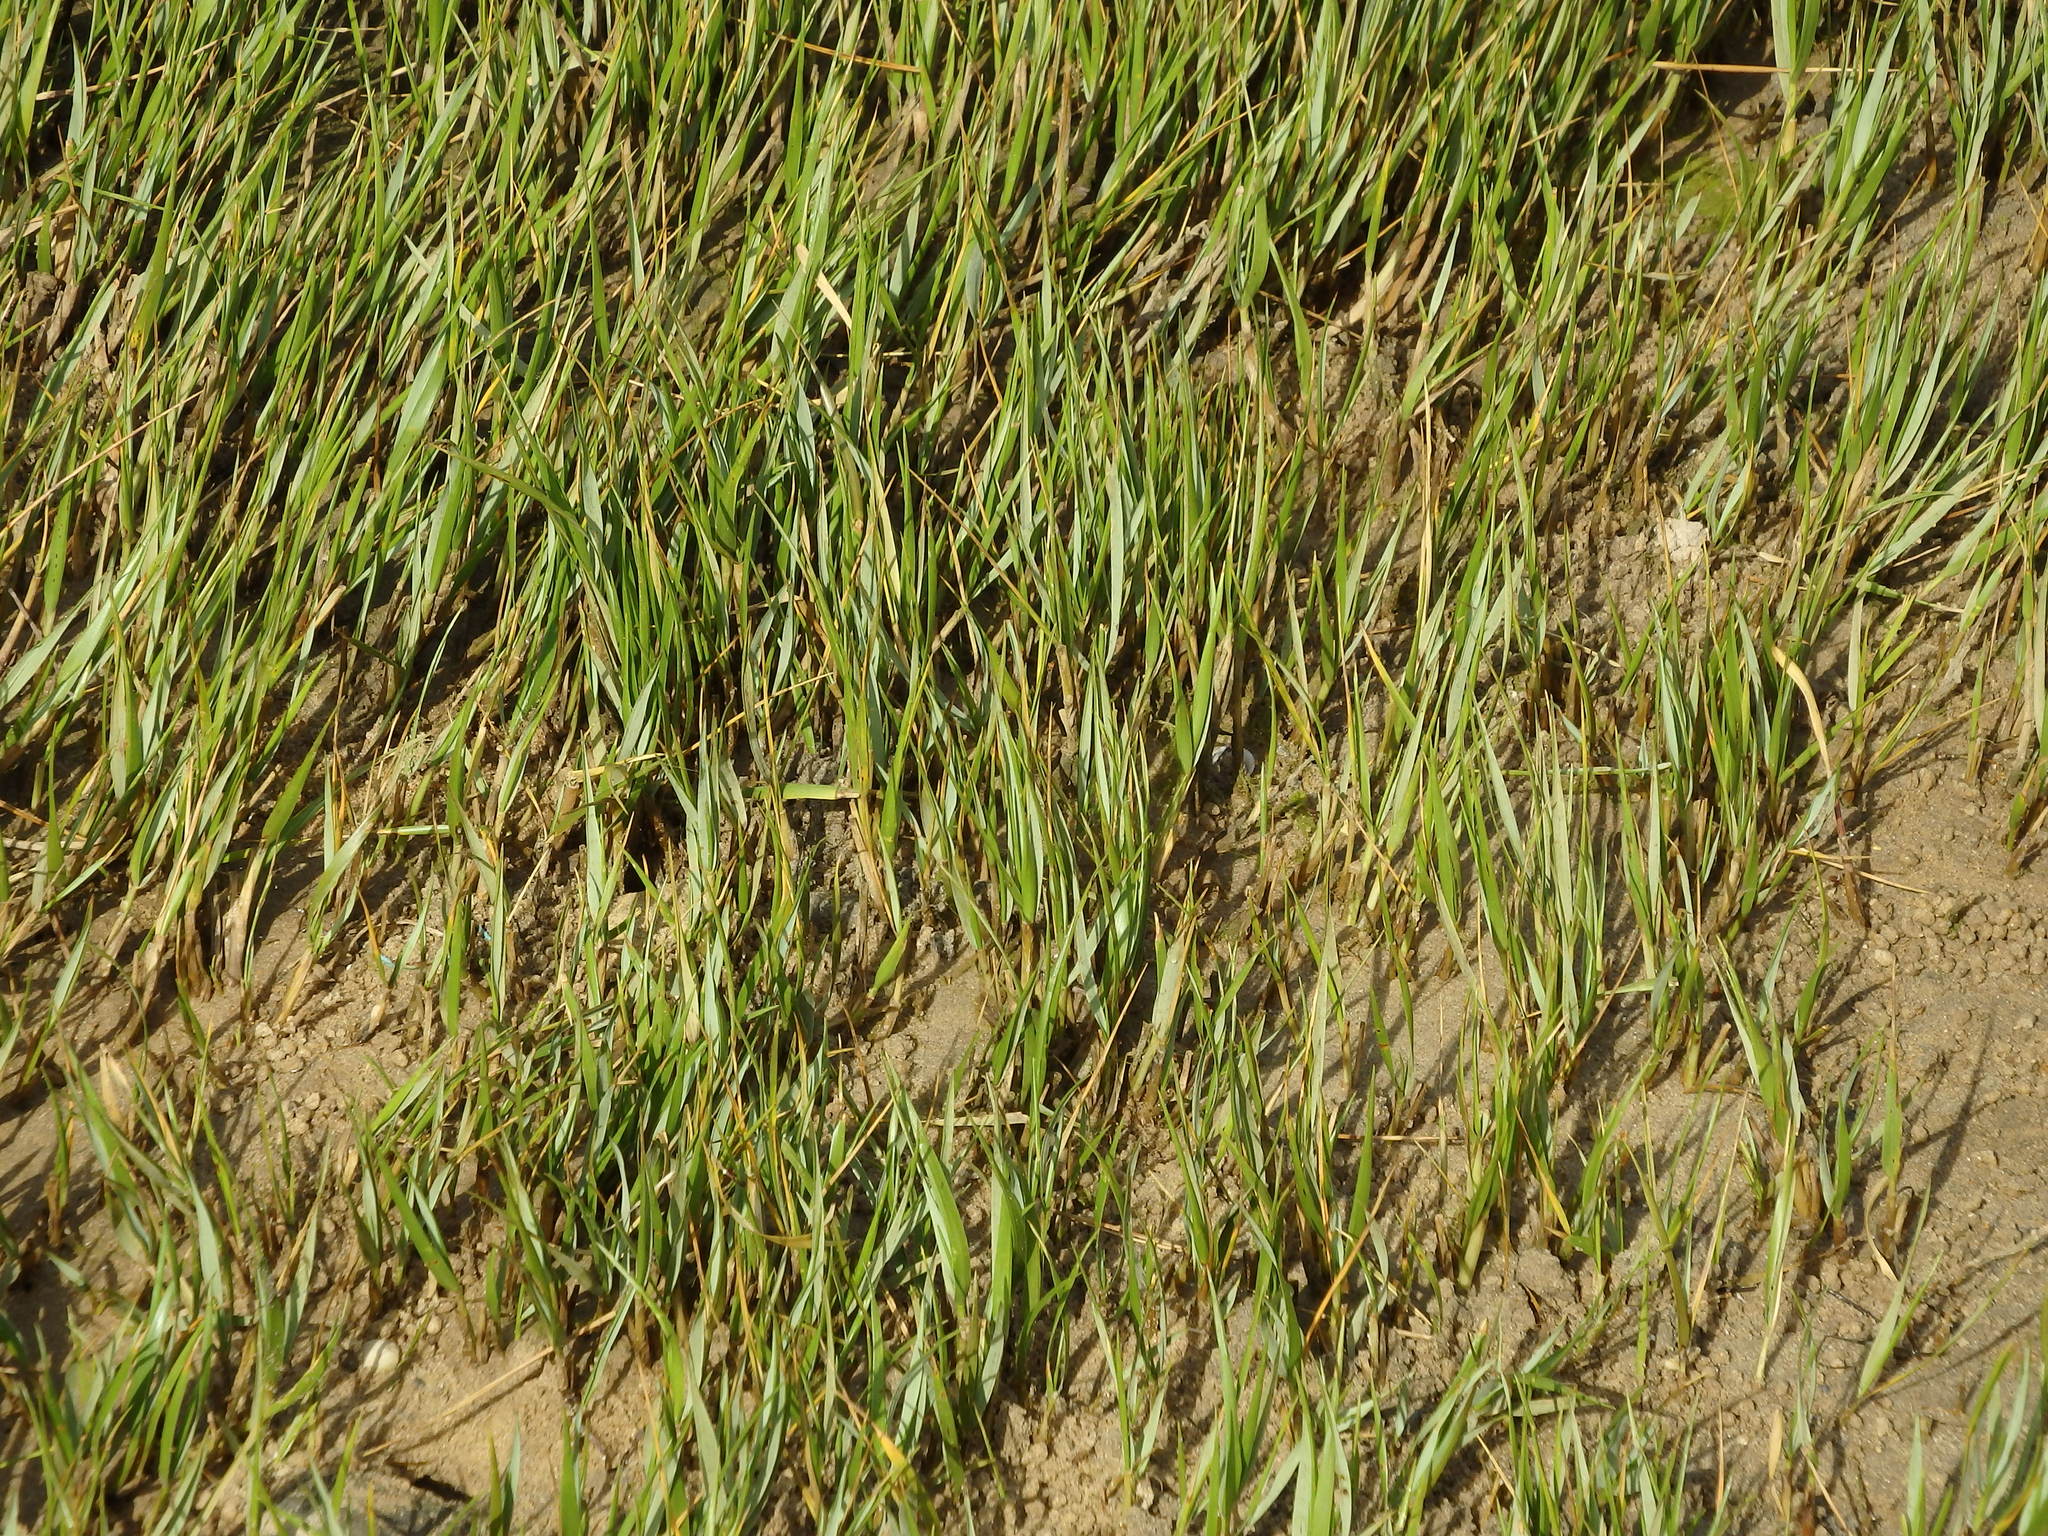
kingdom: Plantae
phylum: Tracheophyta
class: Liliopsida
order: Poales
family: Poaceae
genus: Sporobolus
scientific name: Sporobolus maritimus
